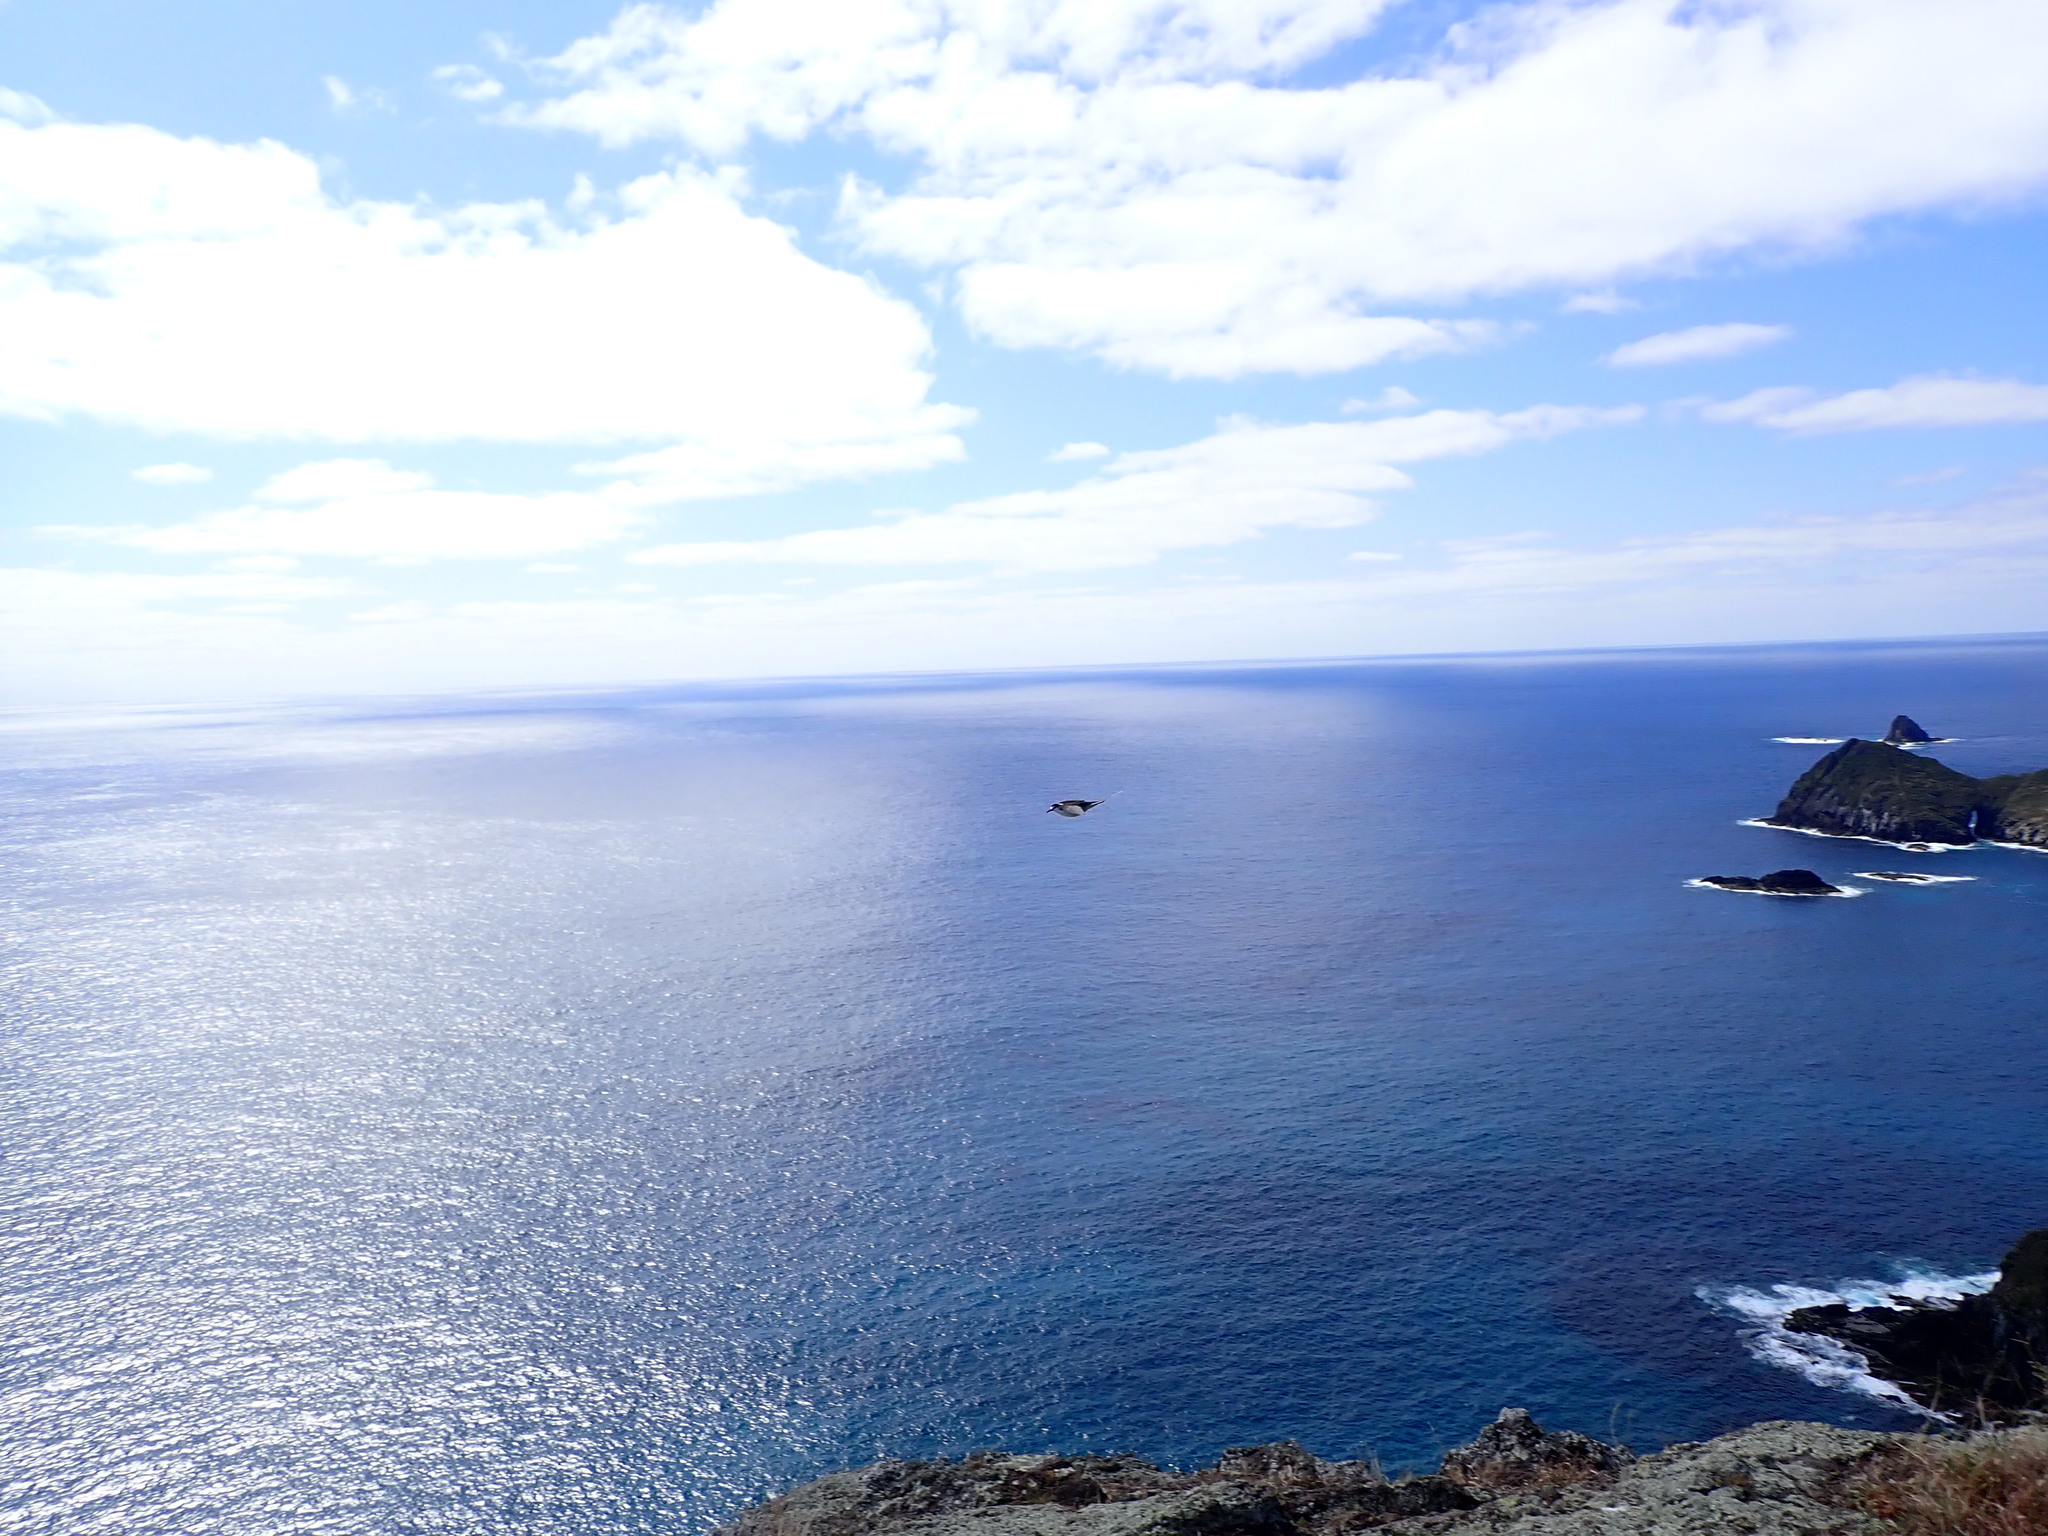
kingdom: Animalia
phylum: Chordata
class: Aves
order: Charadriiformes
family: Laridae
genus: Onychoprion
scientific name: Onychoprion fuscatus
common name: Sooty tern
